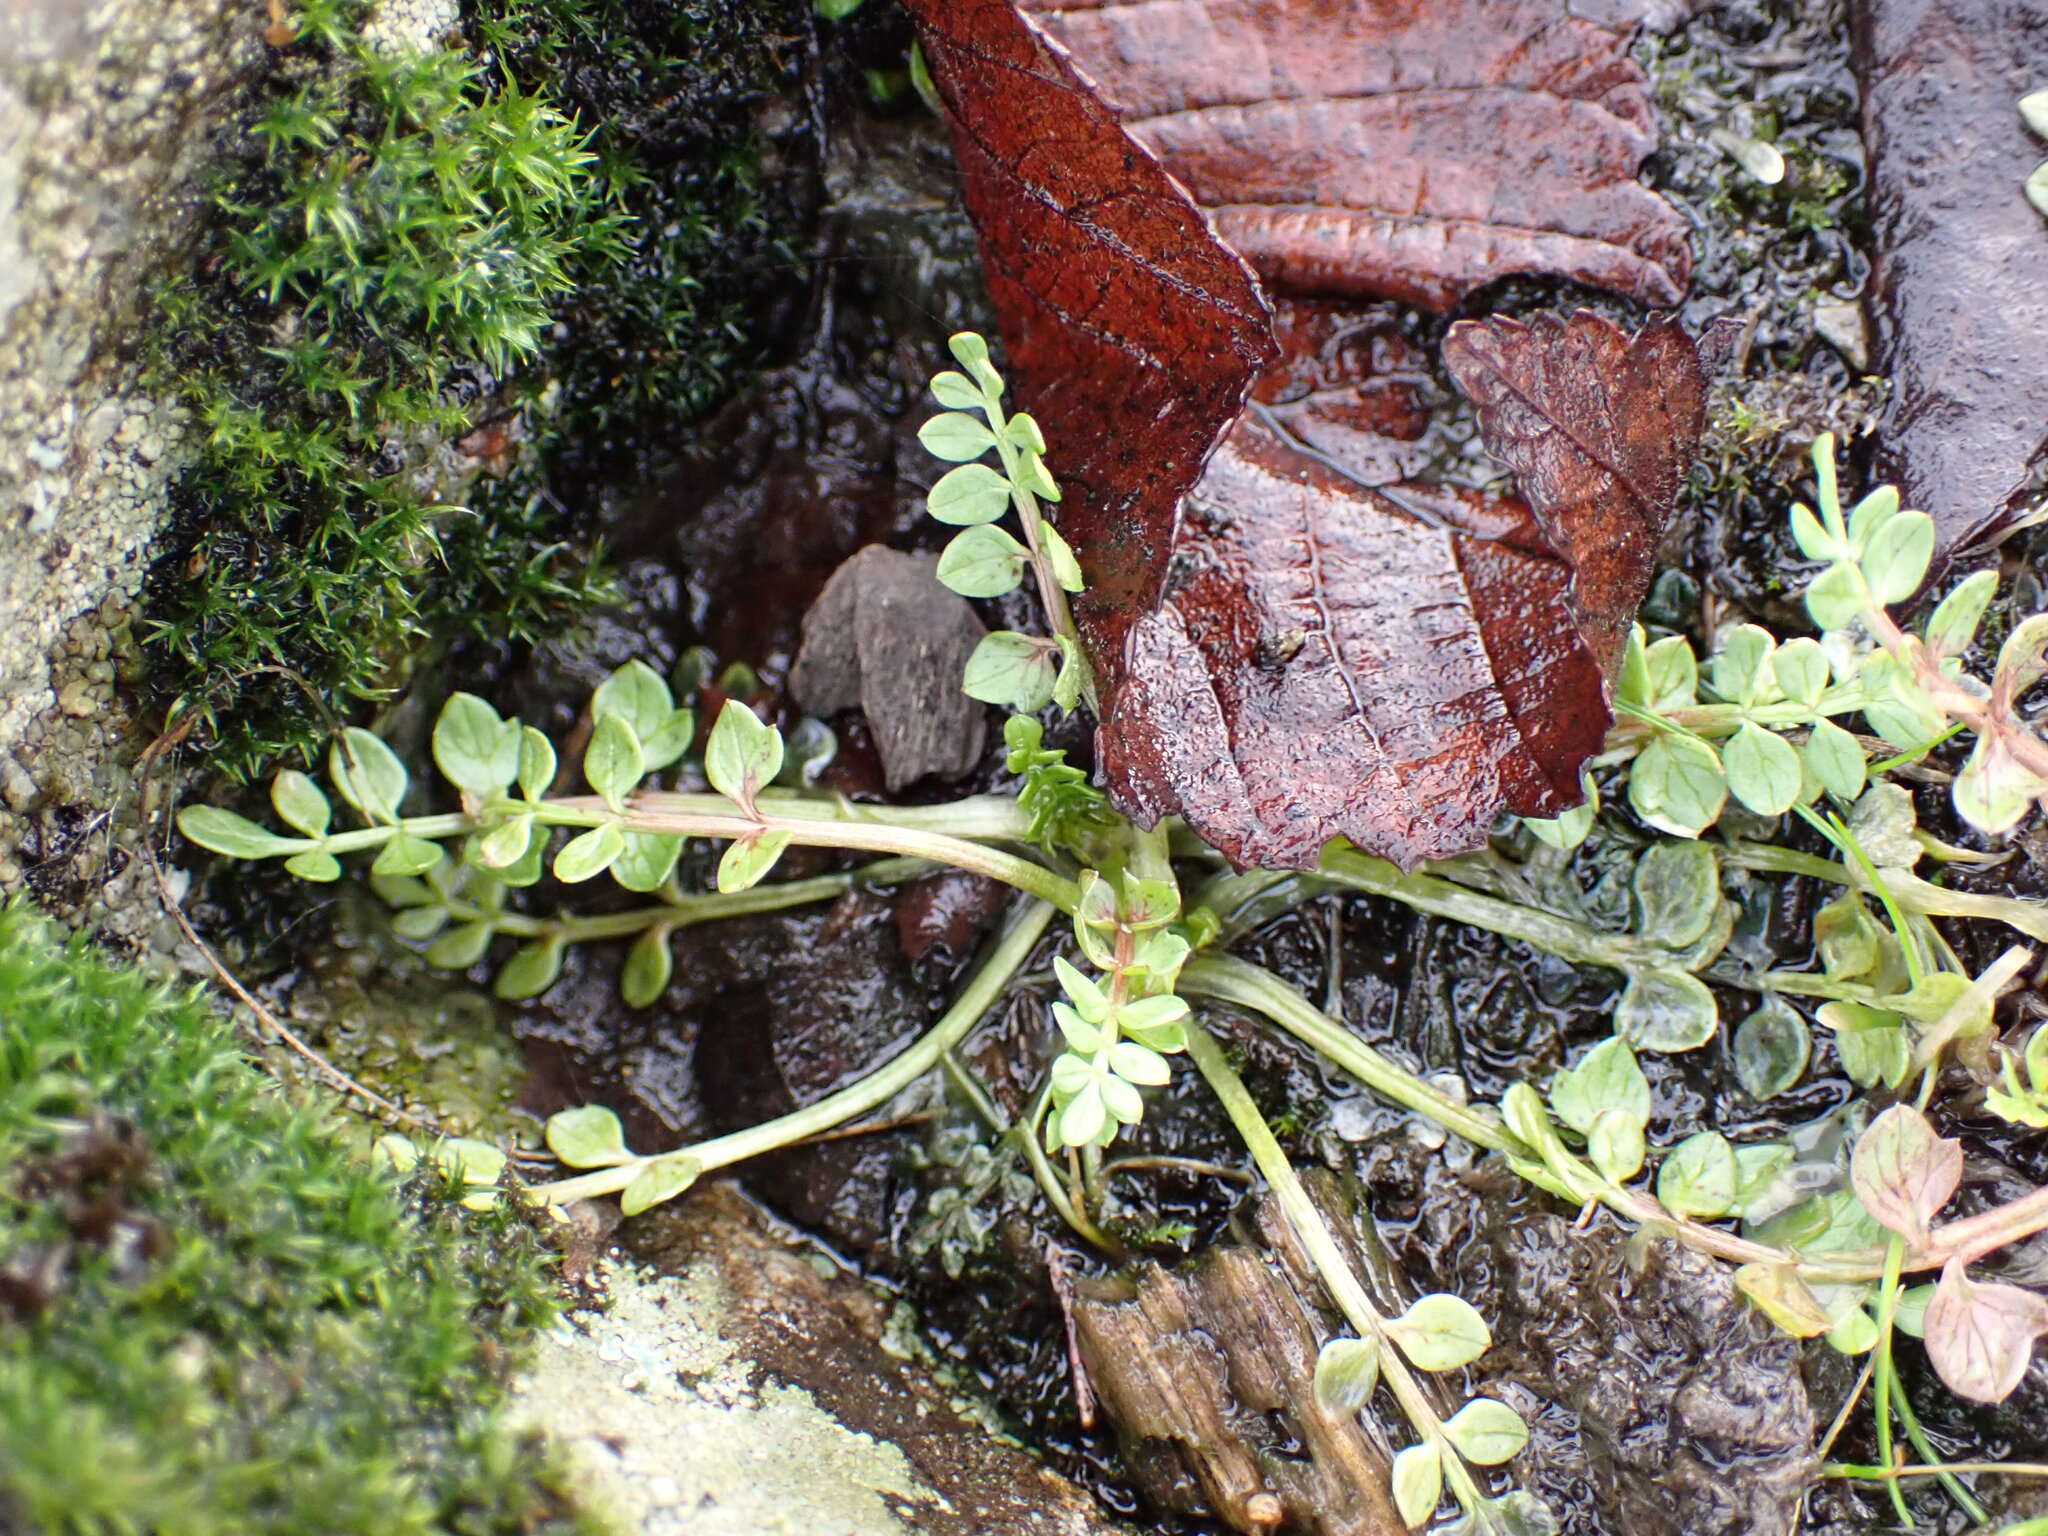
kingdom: Plantae
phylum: Tracheophyta
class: Magnoliopsida
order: Brassicales
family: Limnanthaceae
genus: Limnanthes
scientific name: Limnanthes macounii
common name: Macoun's meadowfoam
